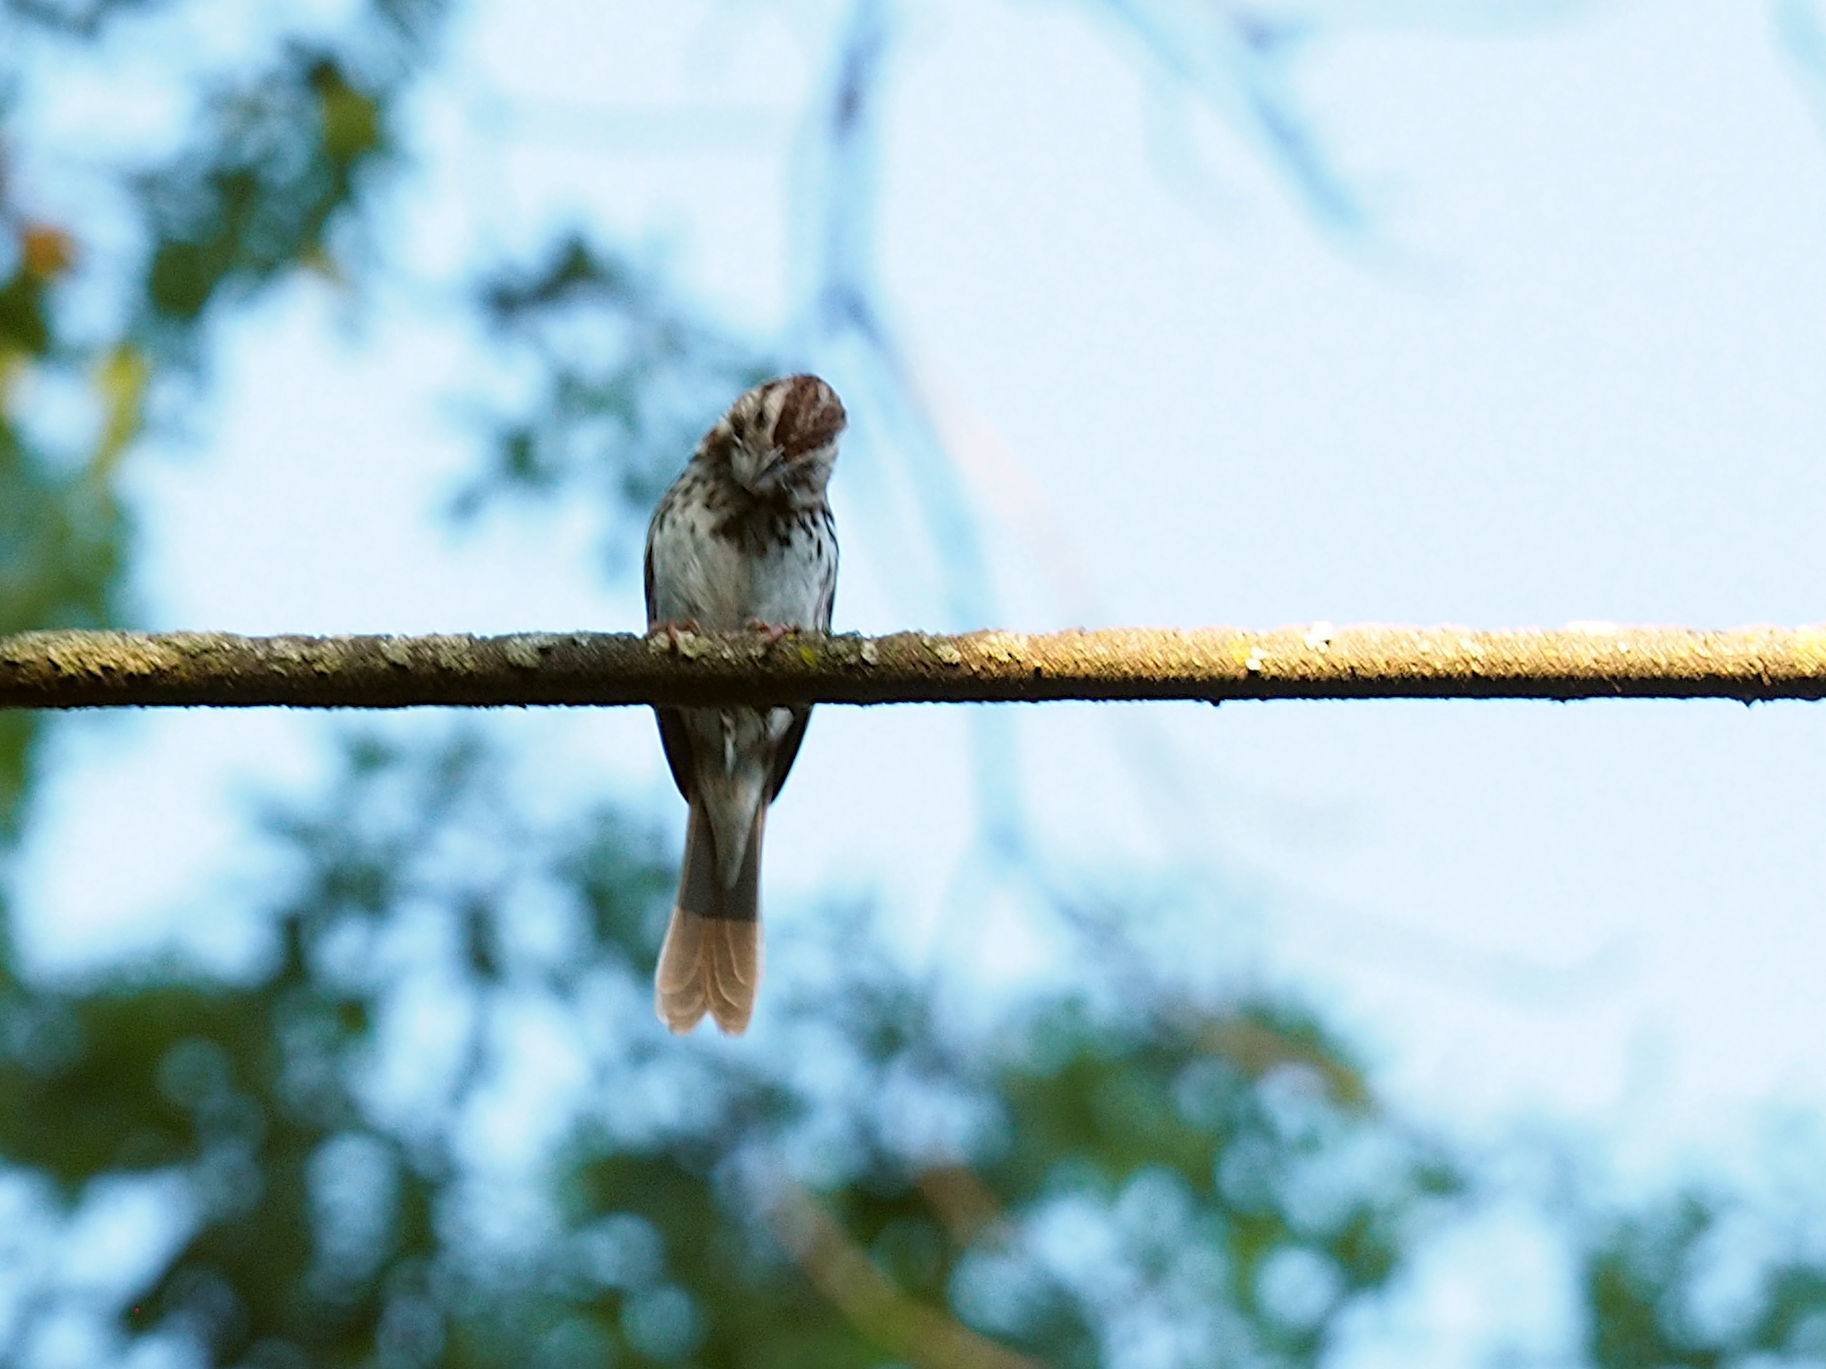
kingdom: Animalia
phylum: Chordata
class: Aves
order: Passeriformes
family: Passerellidae
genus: Melospiza
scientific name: Melospiza melodia
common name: Song sparrow
